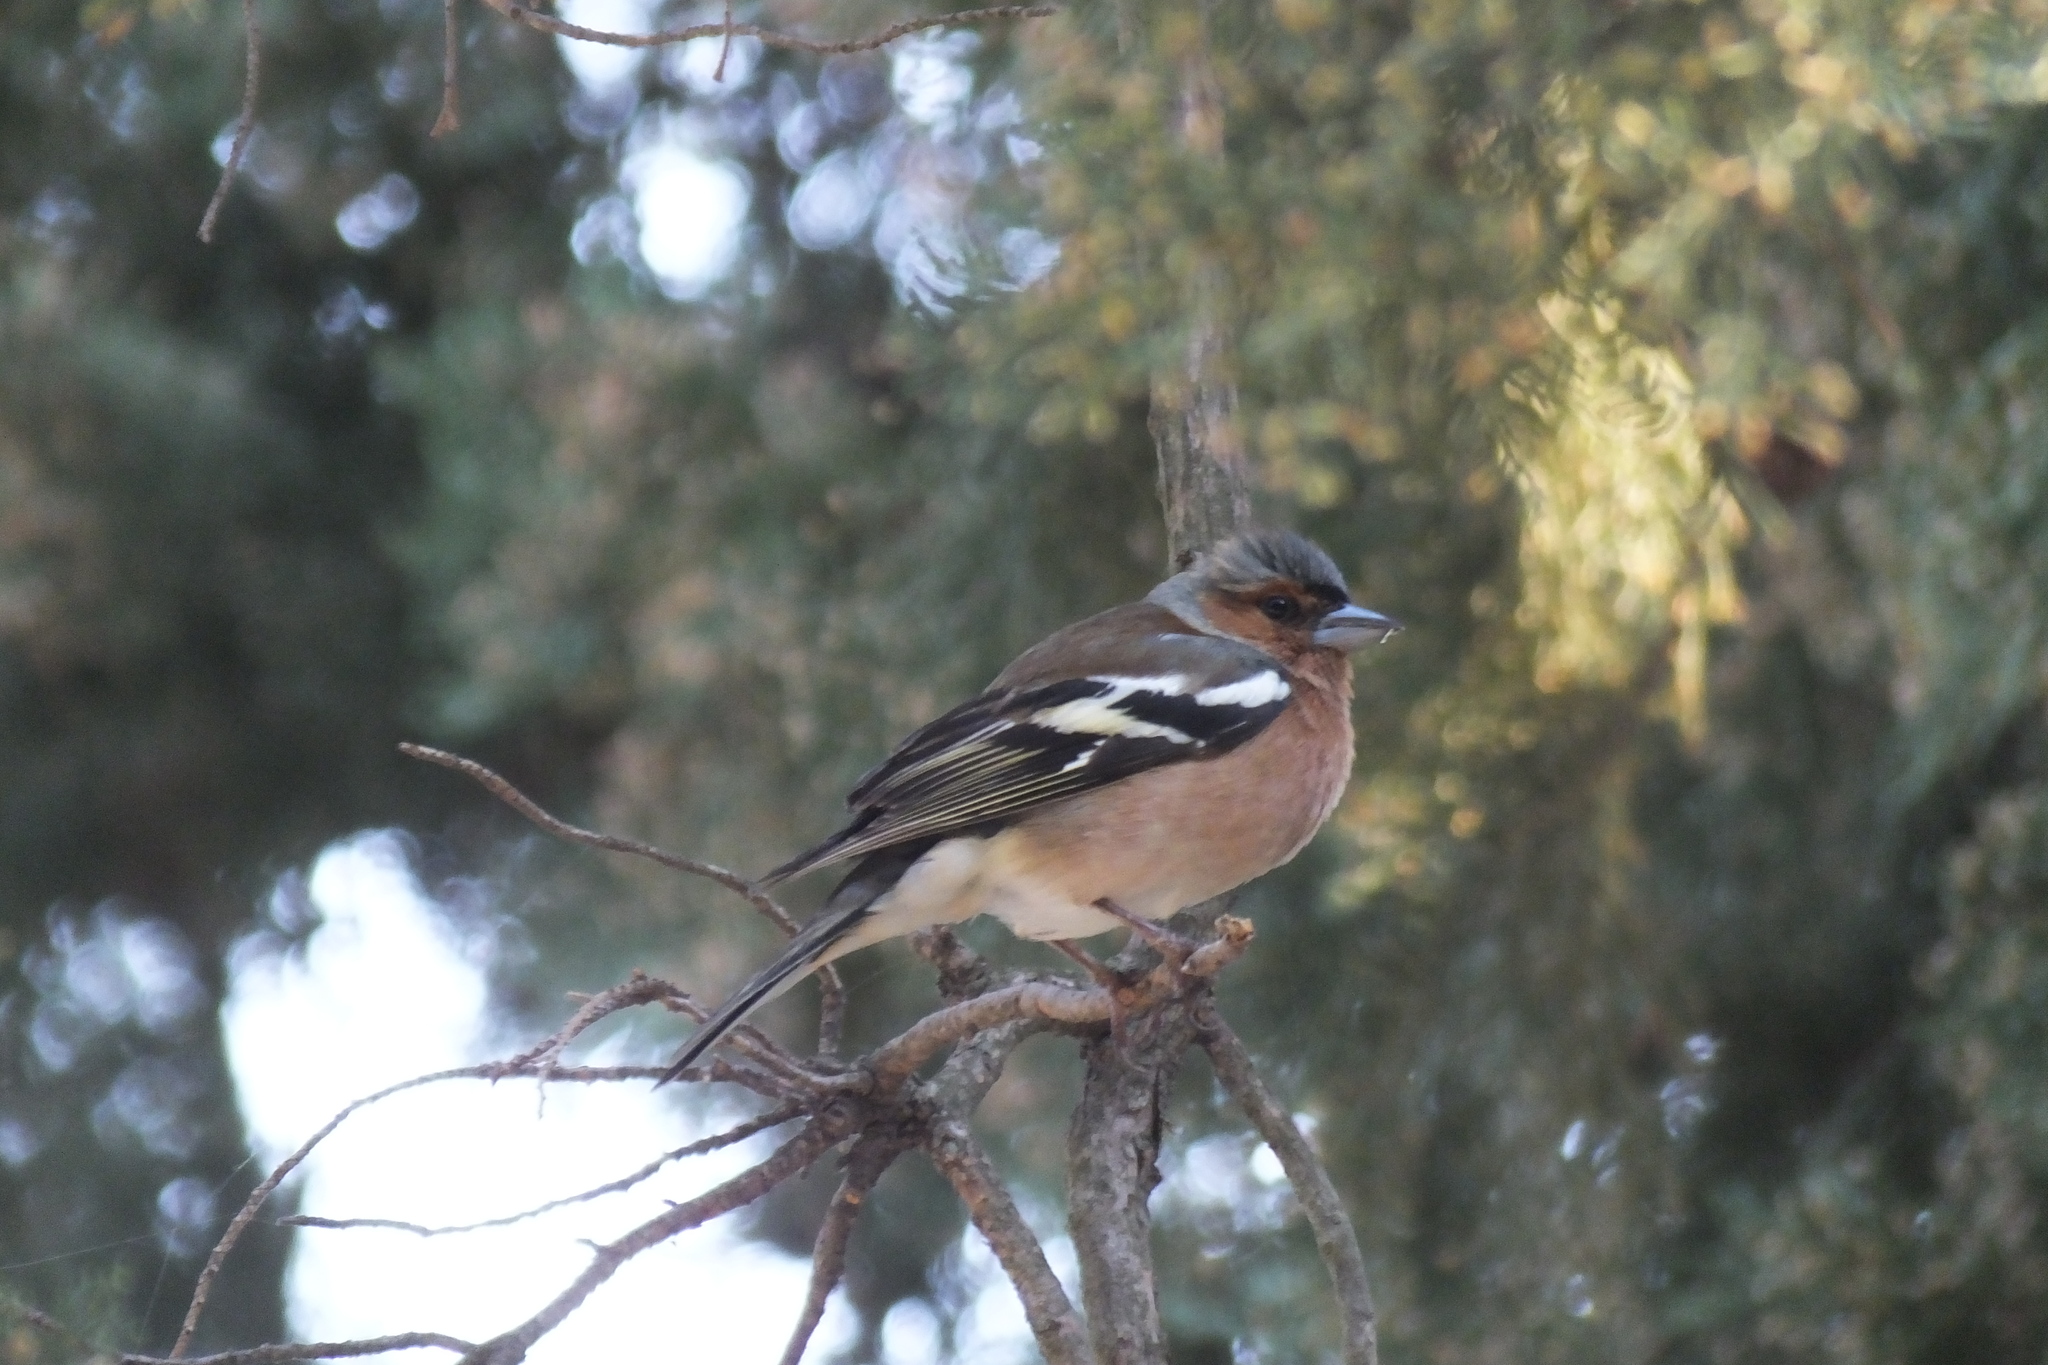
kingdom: Animalia
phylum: Chordata
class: Aves
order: Passeriformes
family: Fringillidae
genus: Fringilla
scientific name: Fringilla coelebs
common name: Common chaffinch
